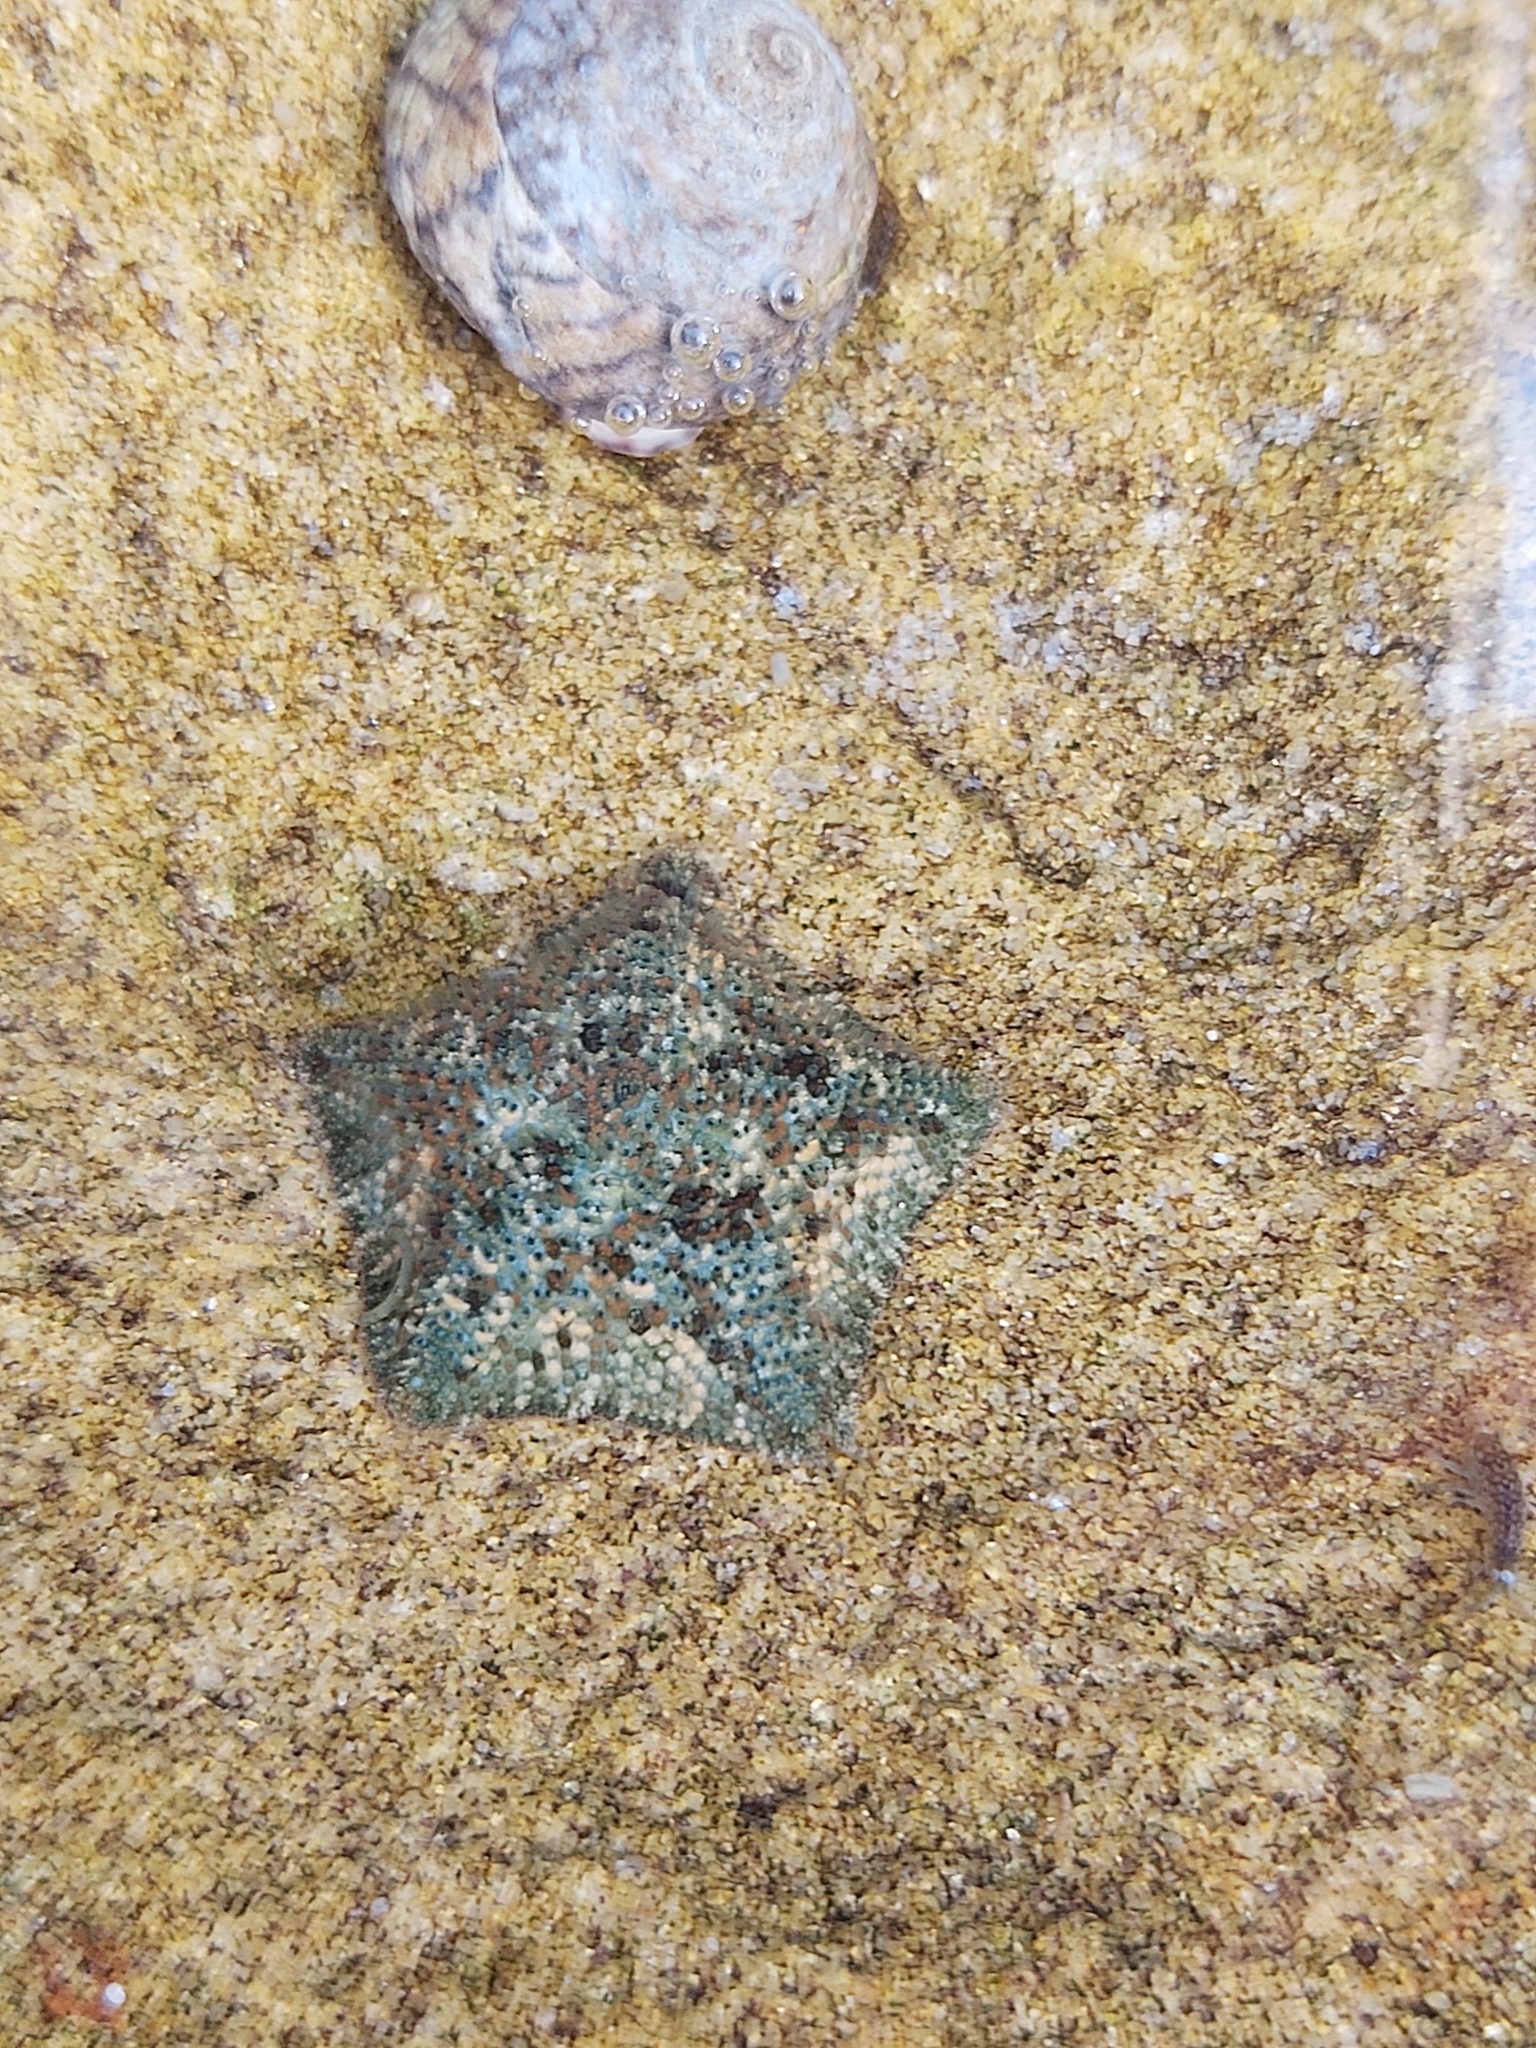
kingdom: Animalia
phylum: Echinodermata
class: Asteroidea
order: Valvatida
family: Asterinidae
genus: Parvulastra
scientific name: Parvulastra exigua
